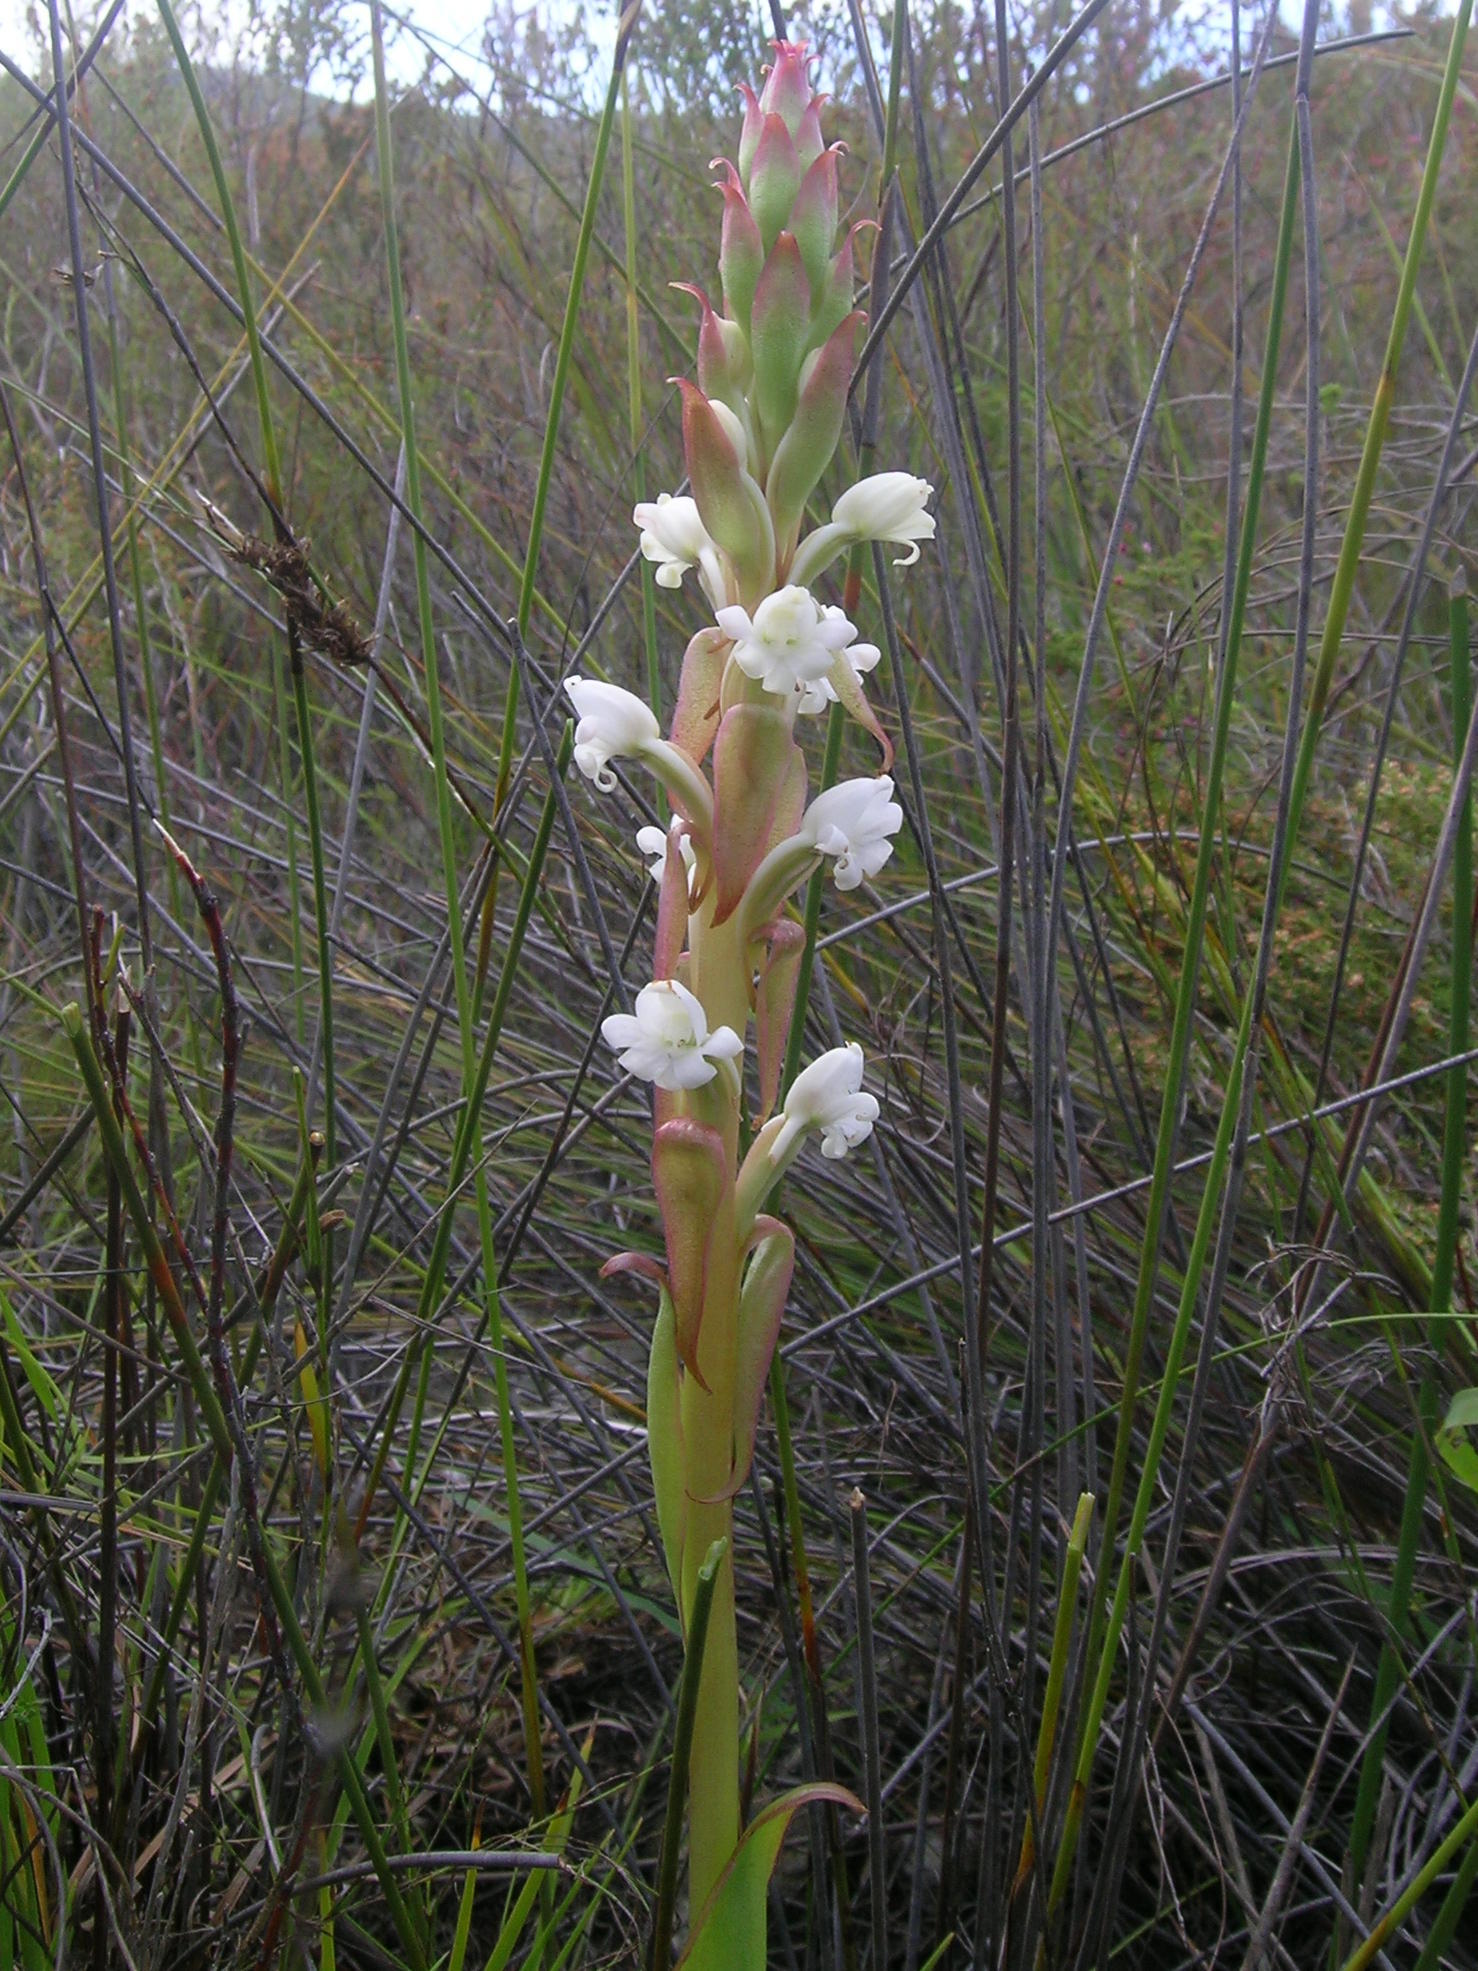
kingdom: Plantae
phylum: Tracheophyta
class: Liliopsida
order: Asparagales
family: Orchidaceae
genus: Satyrium
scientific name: Satyrium acuminatum
